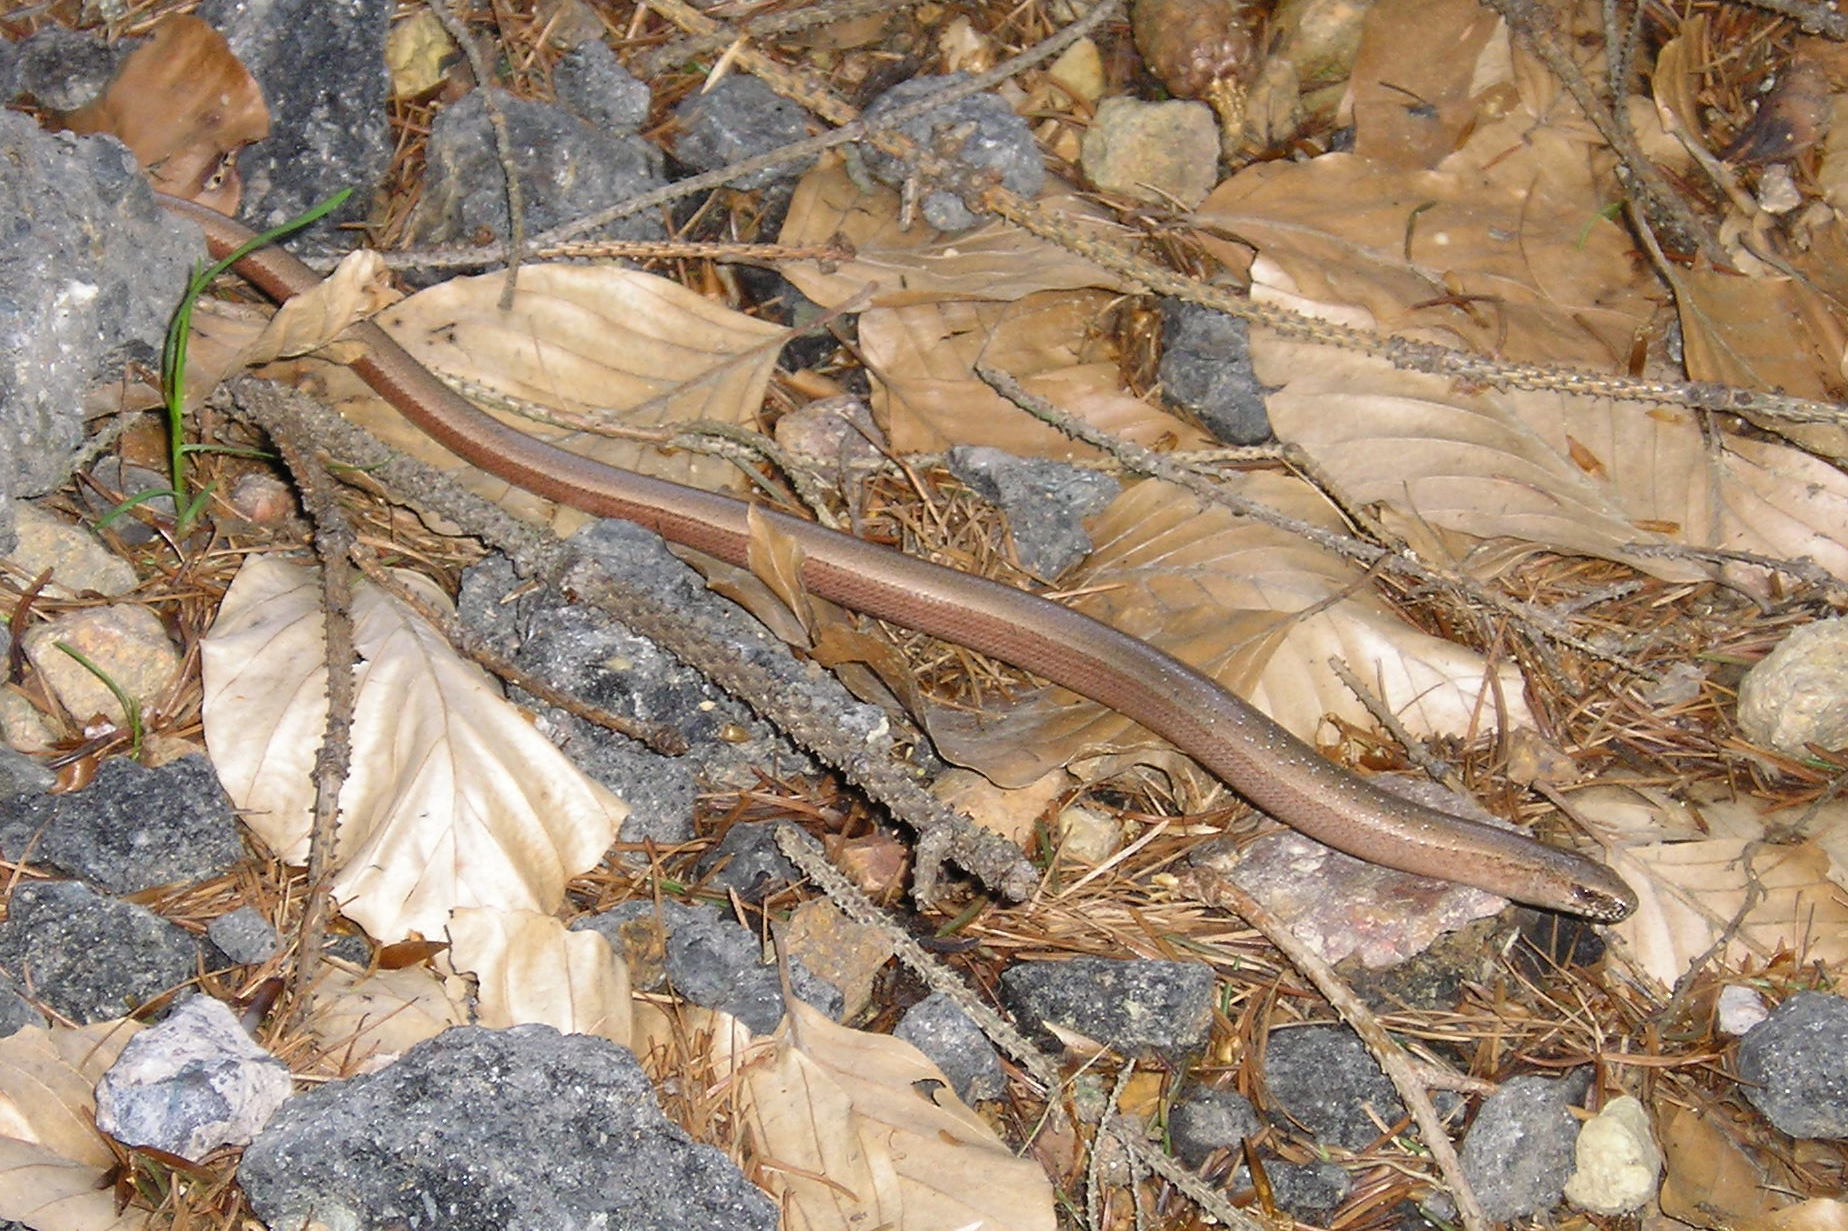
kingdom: Animalia
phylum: Chordata
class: Squamata
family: Anguidae
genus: Anguis
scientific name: Anguis fragilis
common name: Slow worm
